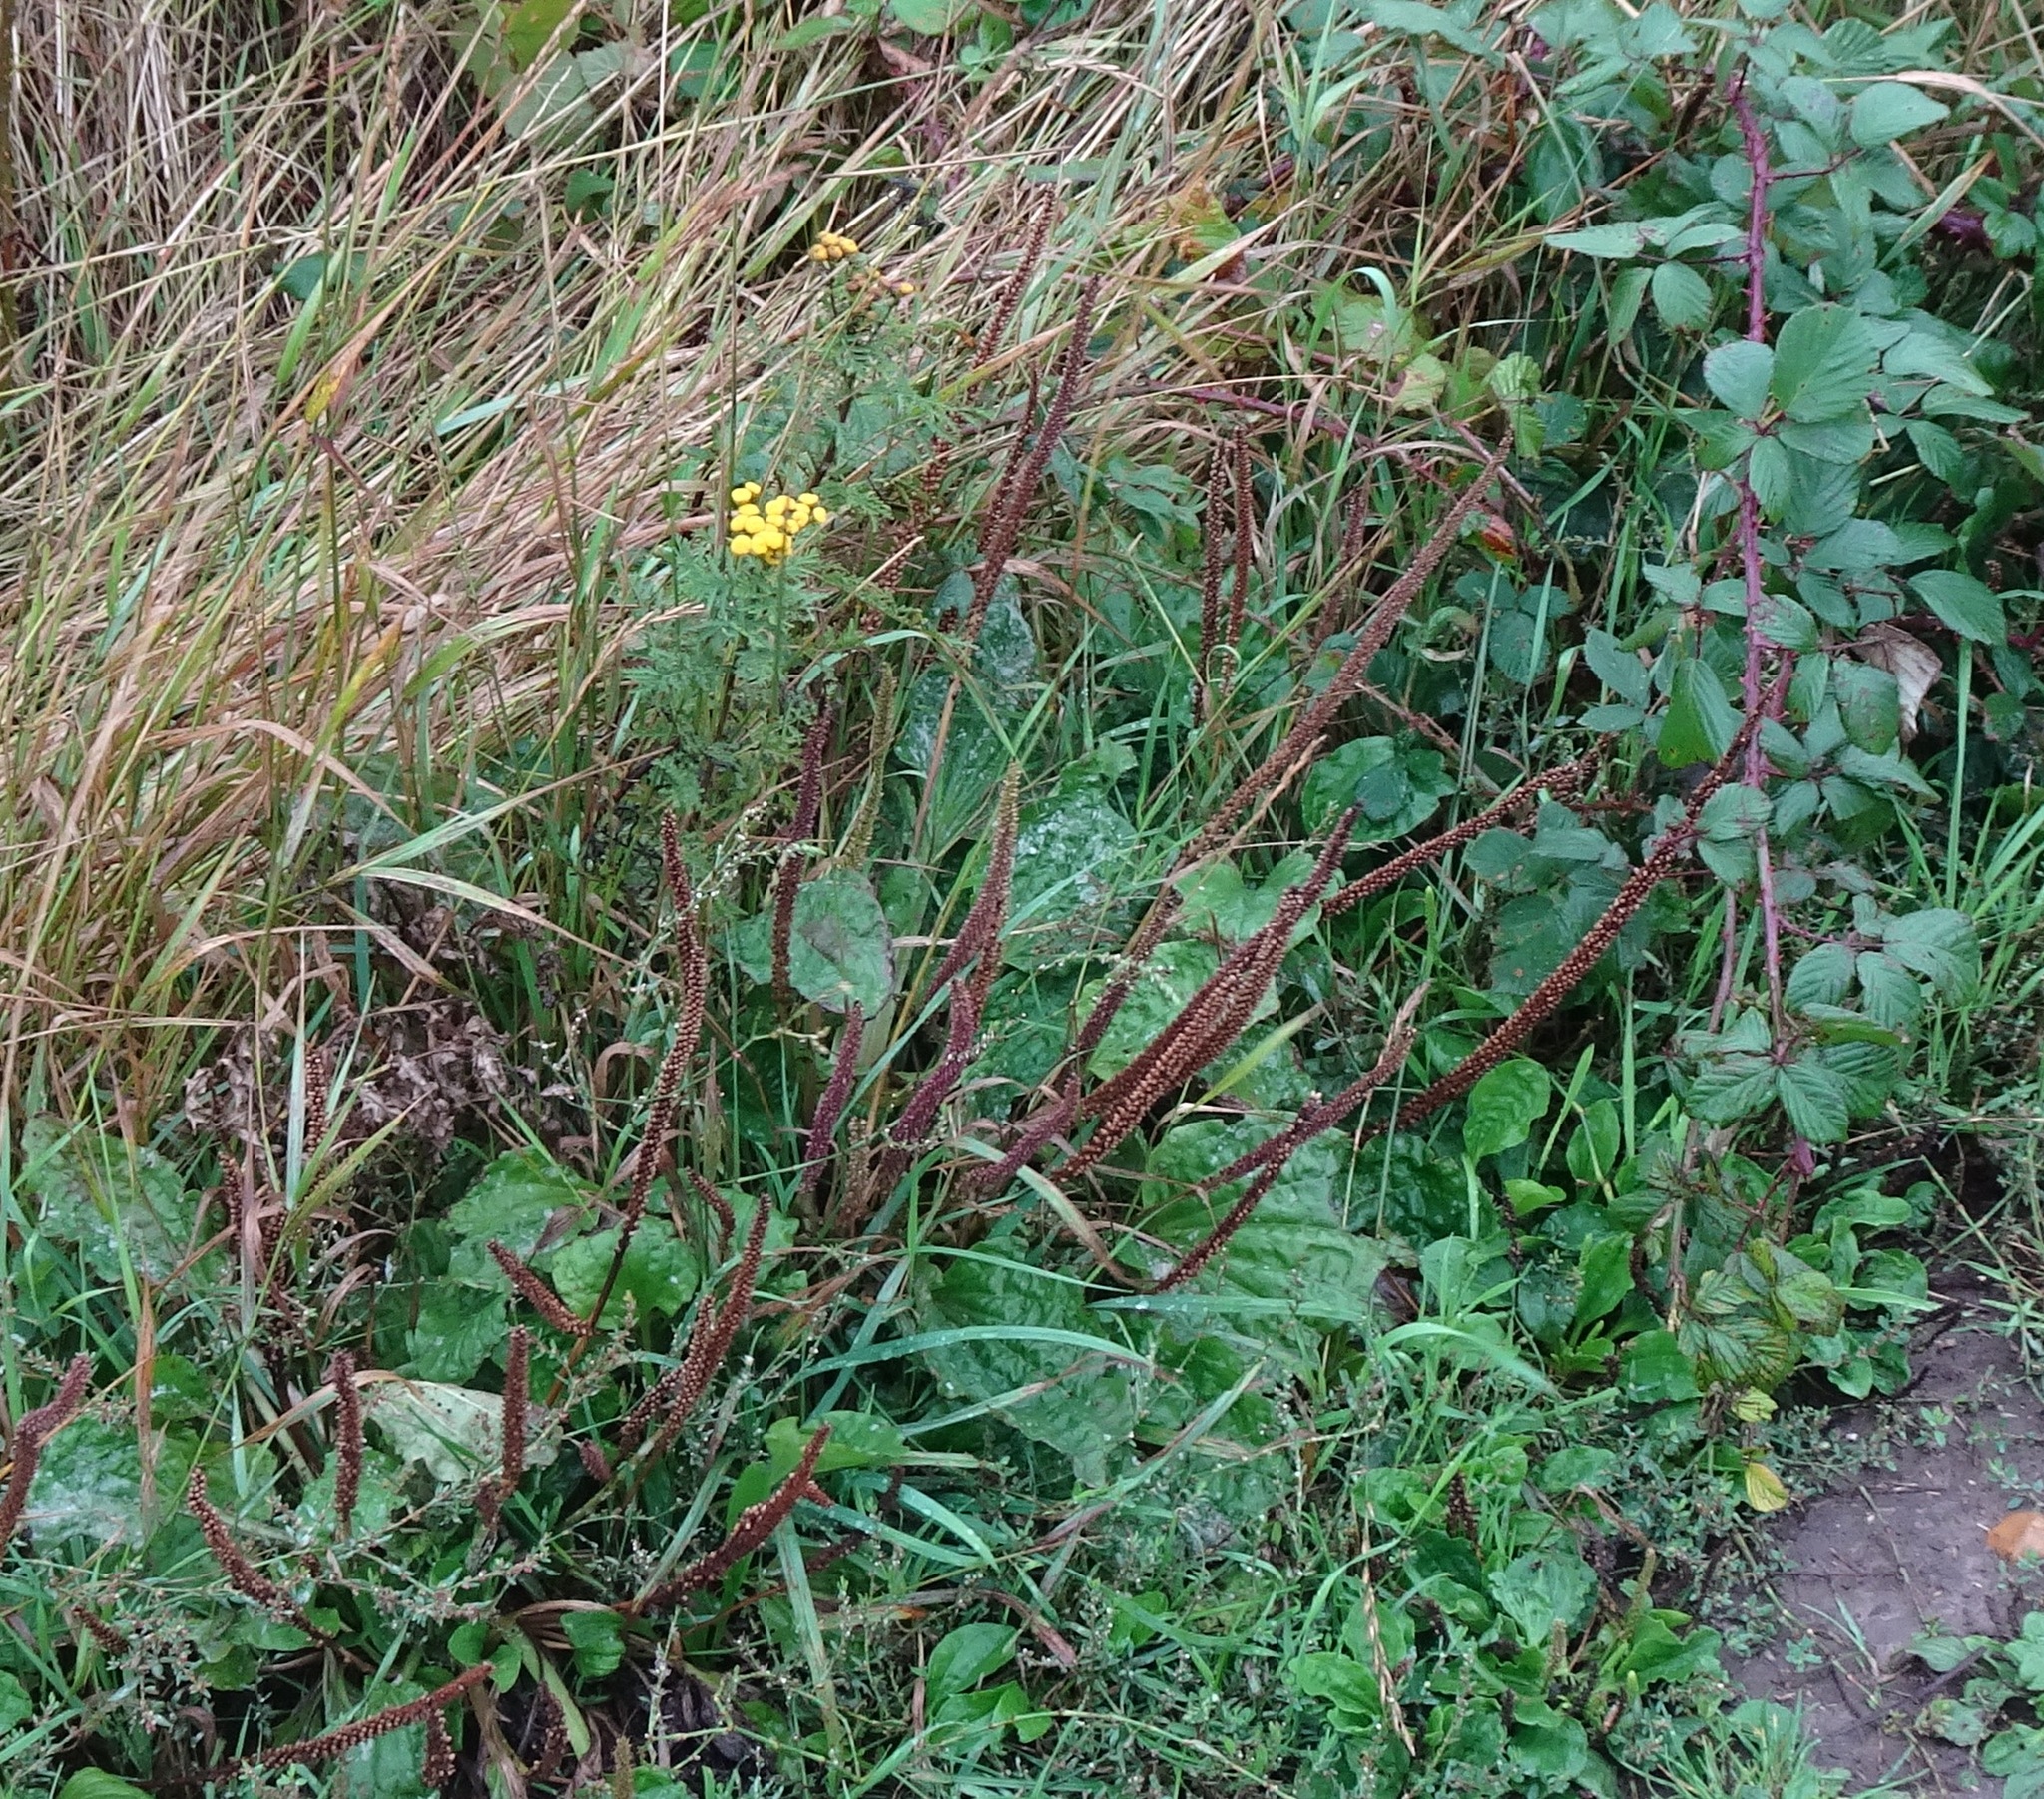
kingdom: Plantae
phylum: Tracheophyta
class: Magnoliopsida
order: Lamiales
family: Plantaginaceae
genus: Plantago
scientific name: Plantago major
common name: Common plantain
